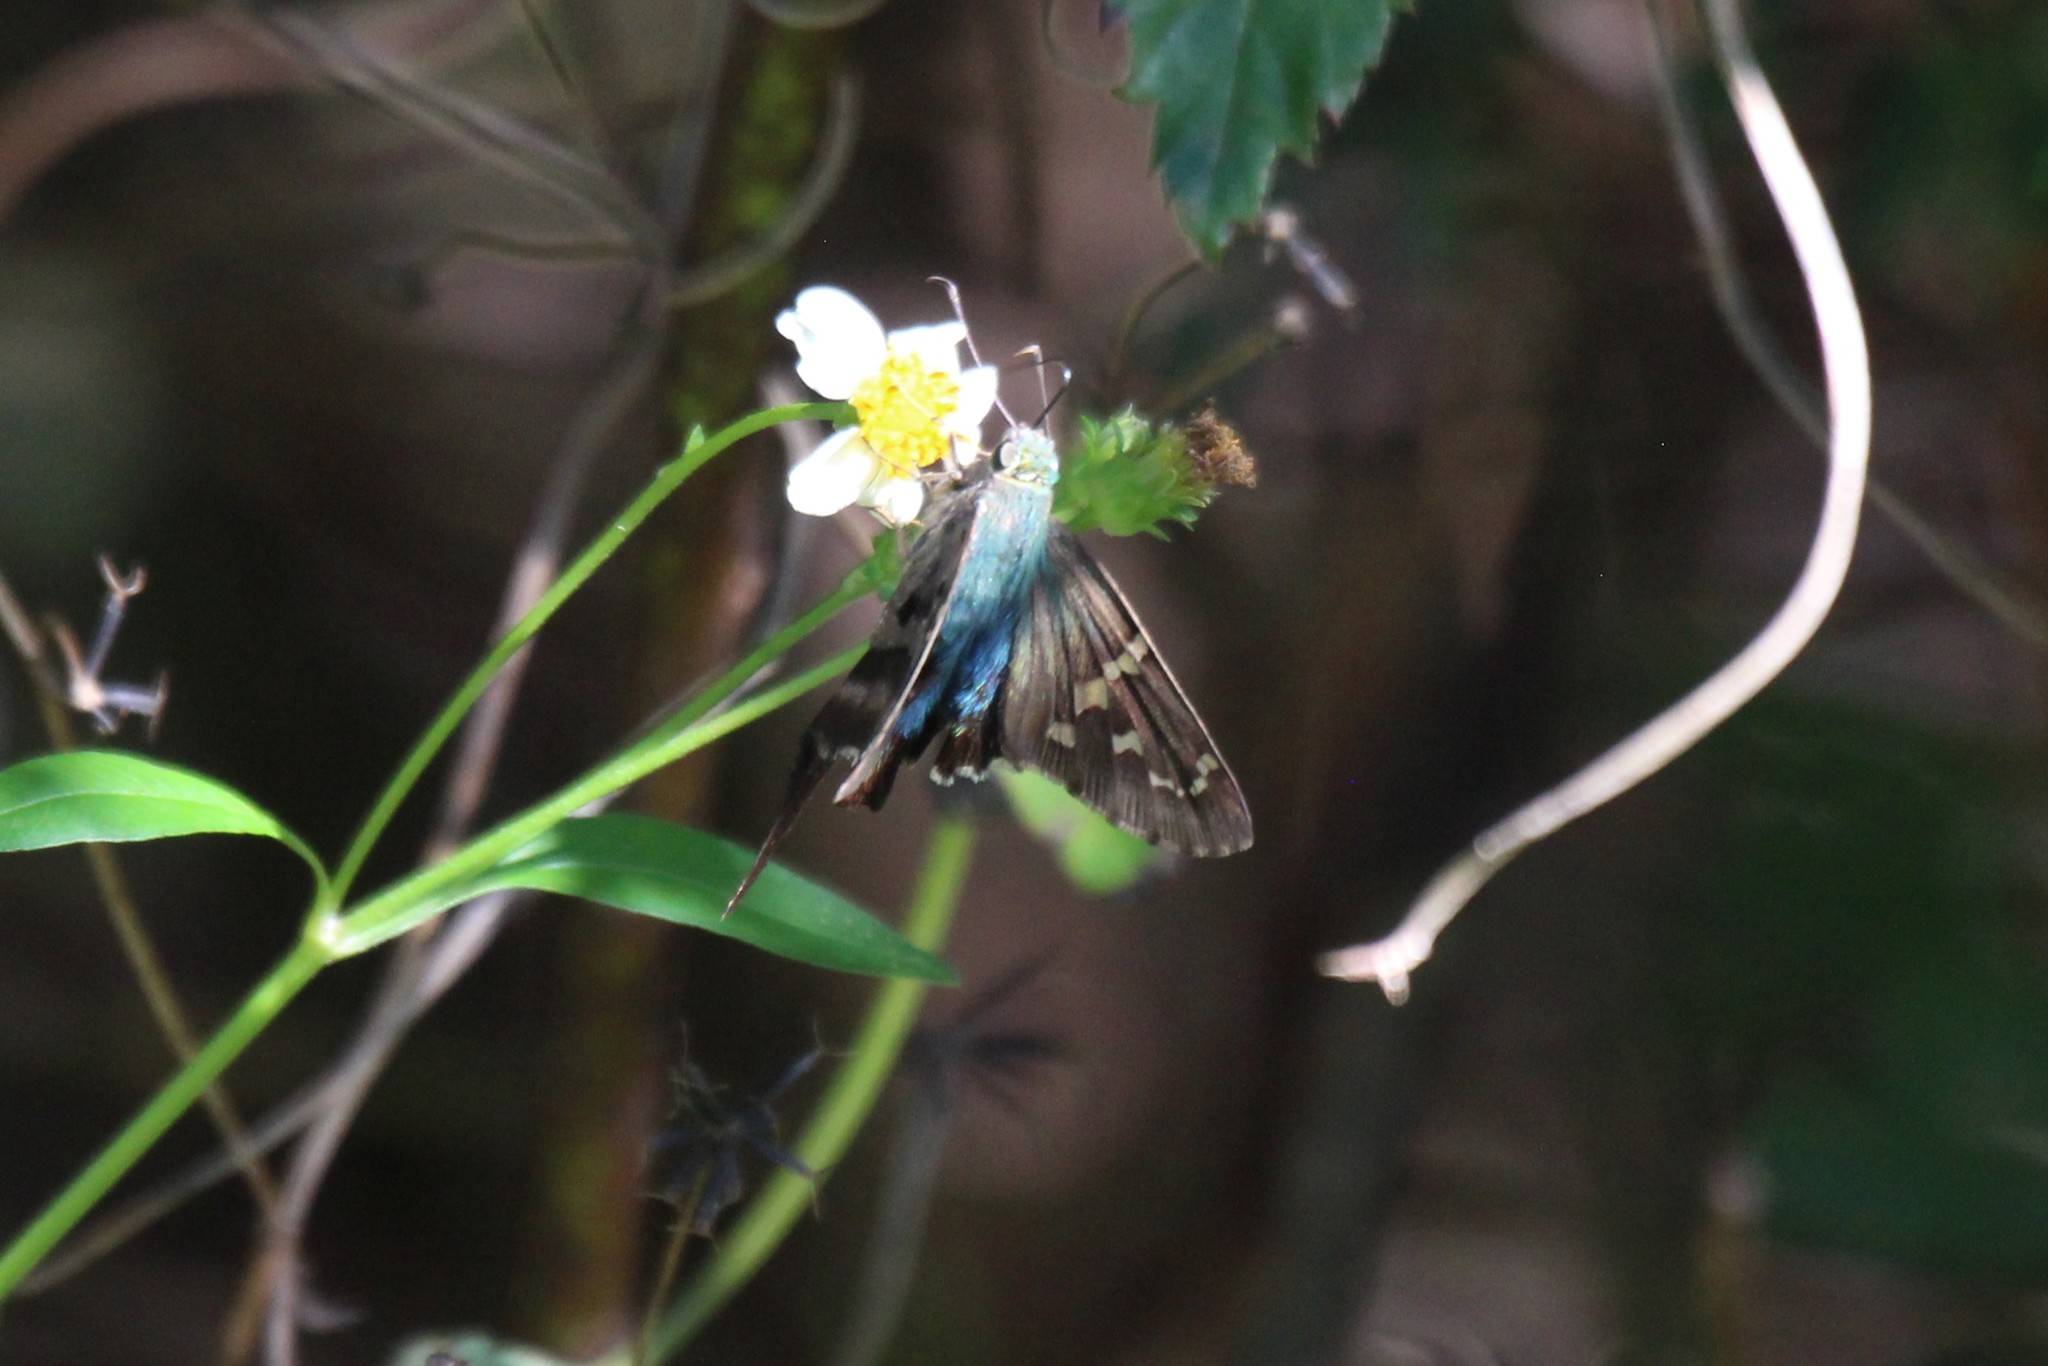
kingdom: Animalia
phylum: Arthropoda
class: Insecta
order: Lepidoptera
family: Hesperiidae
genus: Urbanus
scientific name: Urbanus proteus
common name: Long-tailed skipper
